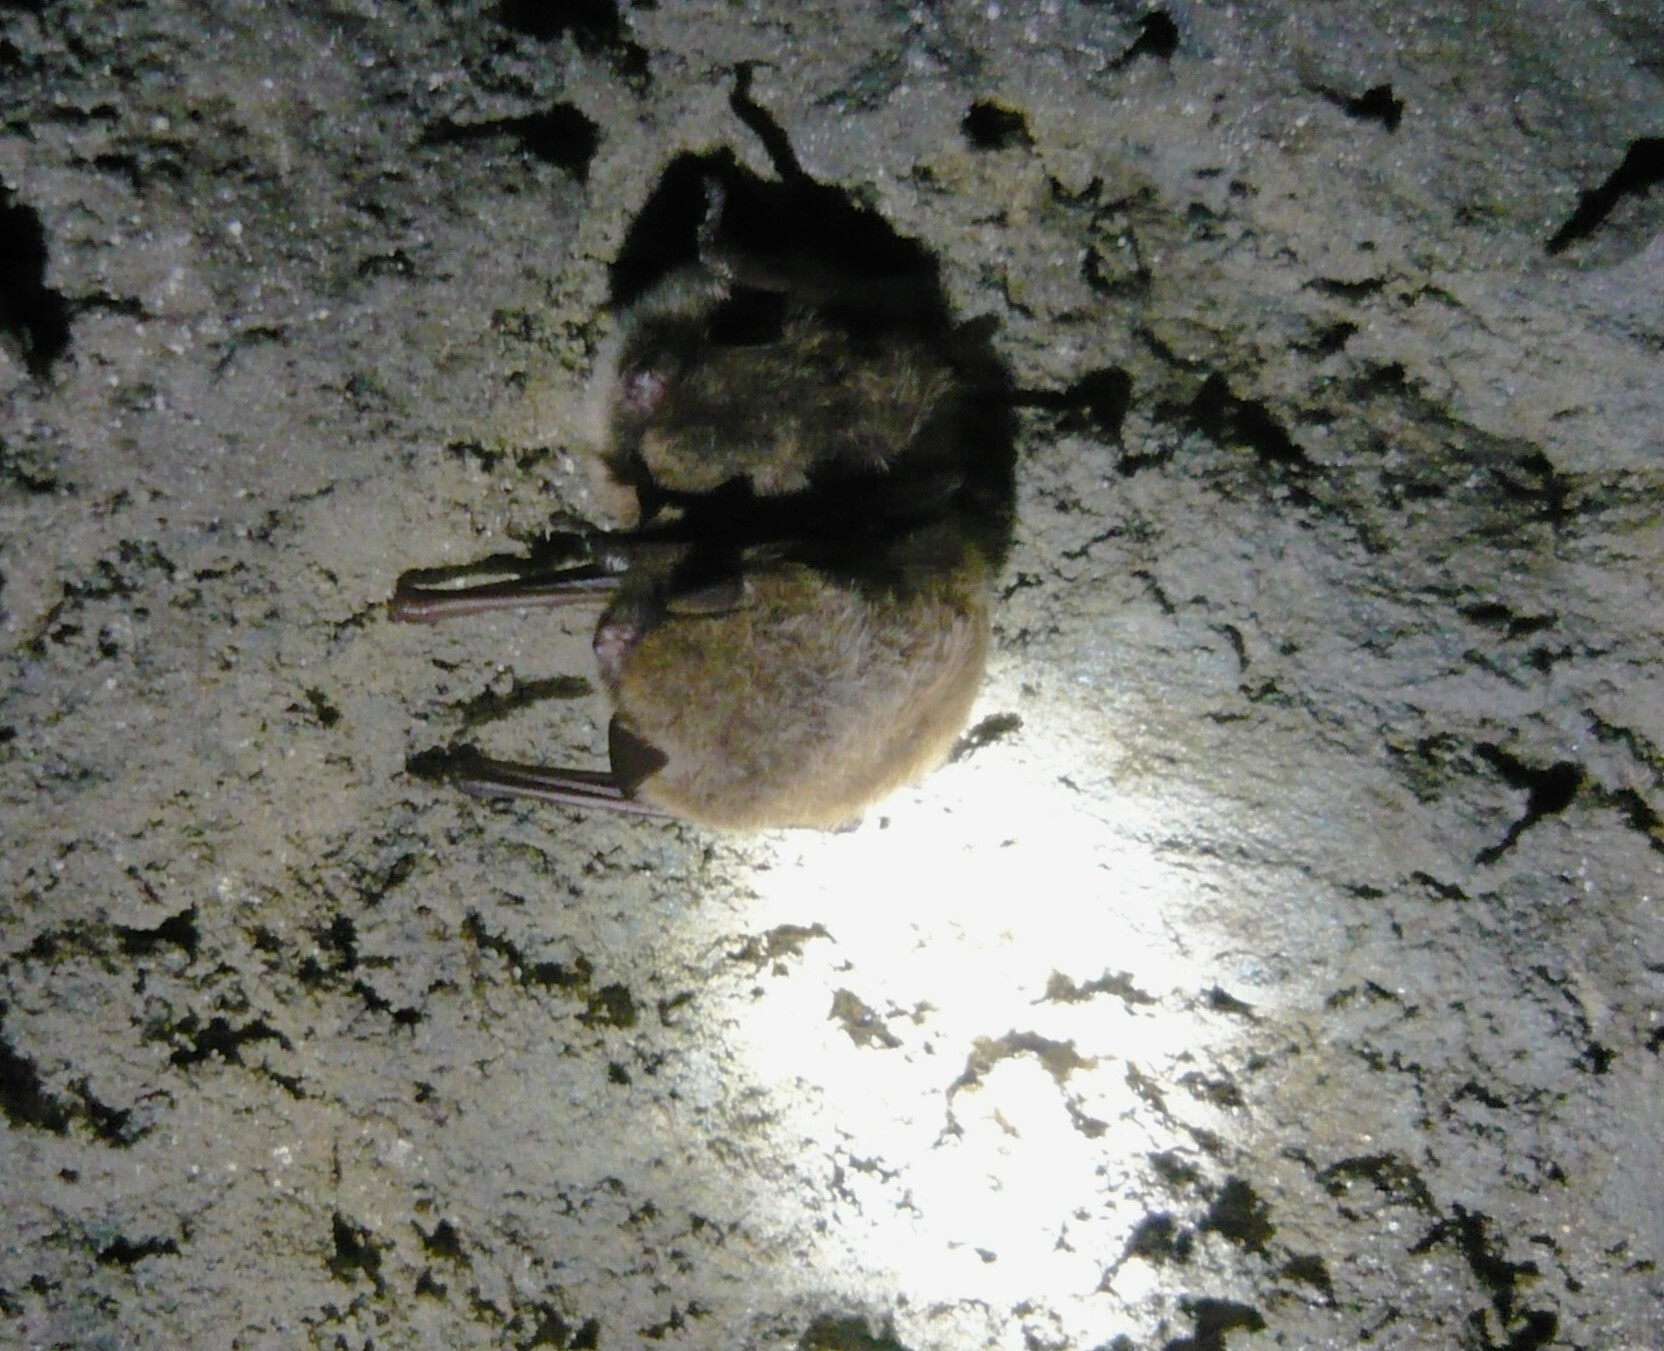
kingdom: Animalia
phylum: Chordata
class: Mammalia
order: Chiroptera
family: Vespertilionidae
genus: Myotis
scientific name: Myotis daubentonii
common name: Daubenton's myotis
